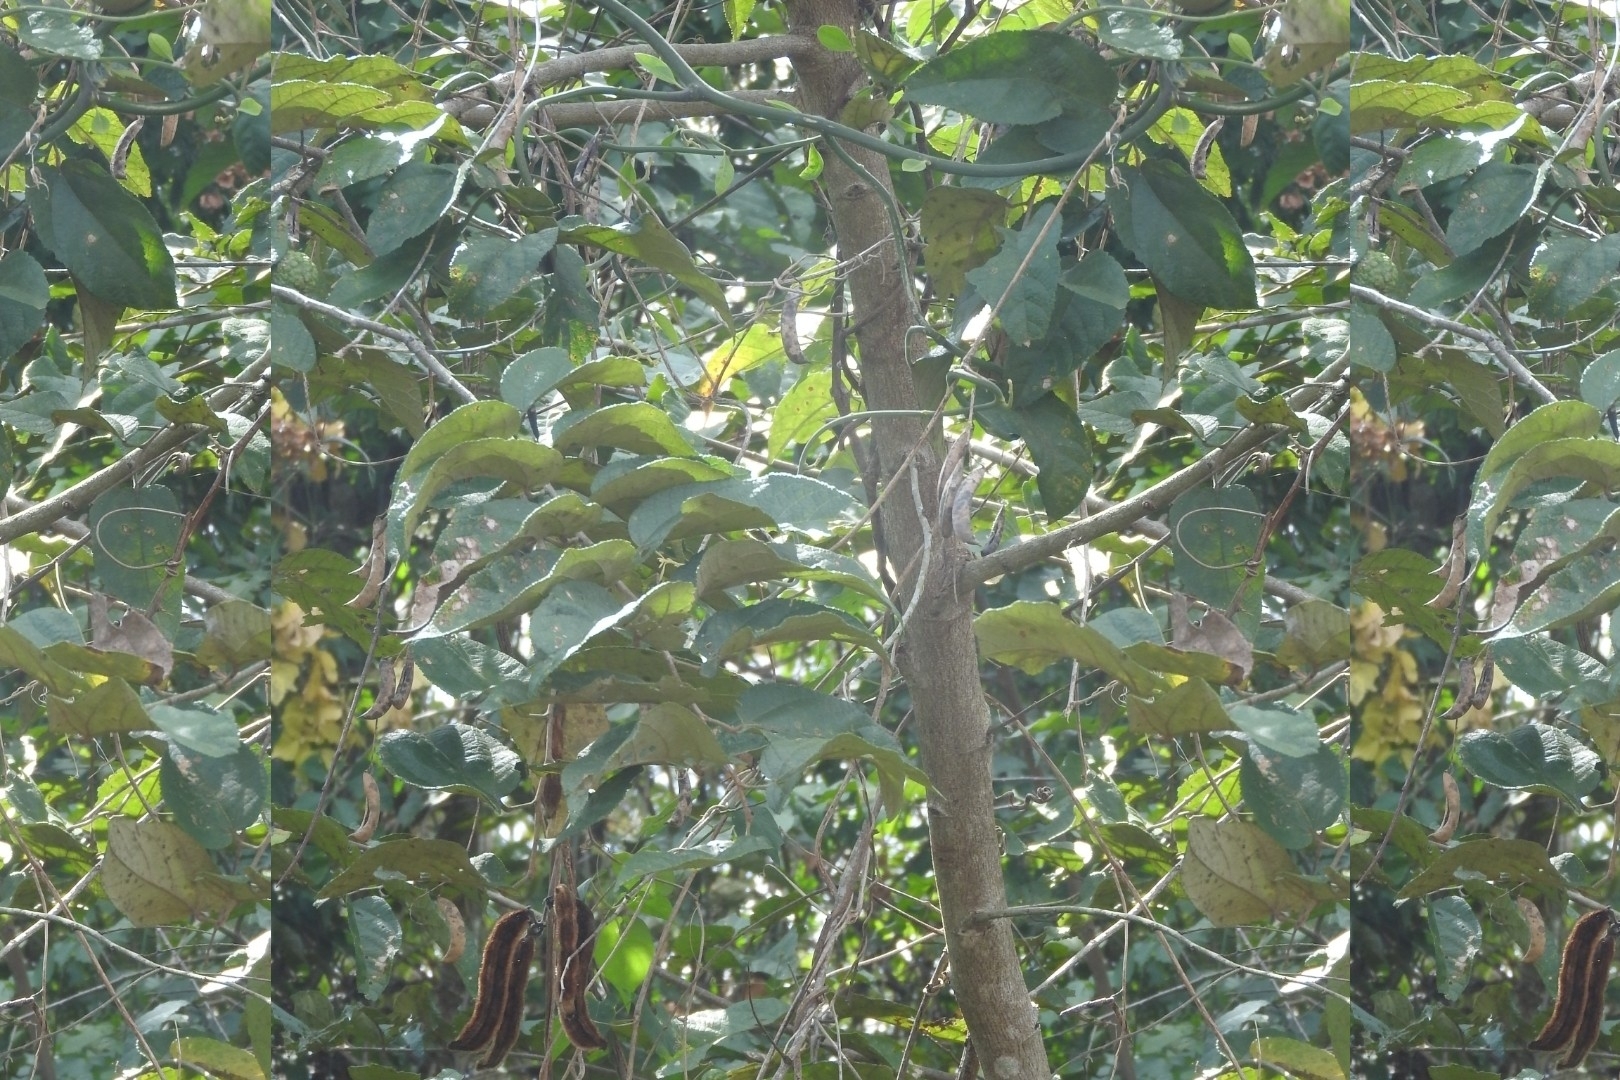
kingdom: Plantae
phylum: Tracheophyta
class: Magnoliopsida
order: Fabales
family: Fabaceae
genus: Mucuna
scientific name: Mucuna pruriens
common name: Cow-itch
